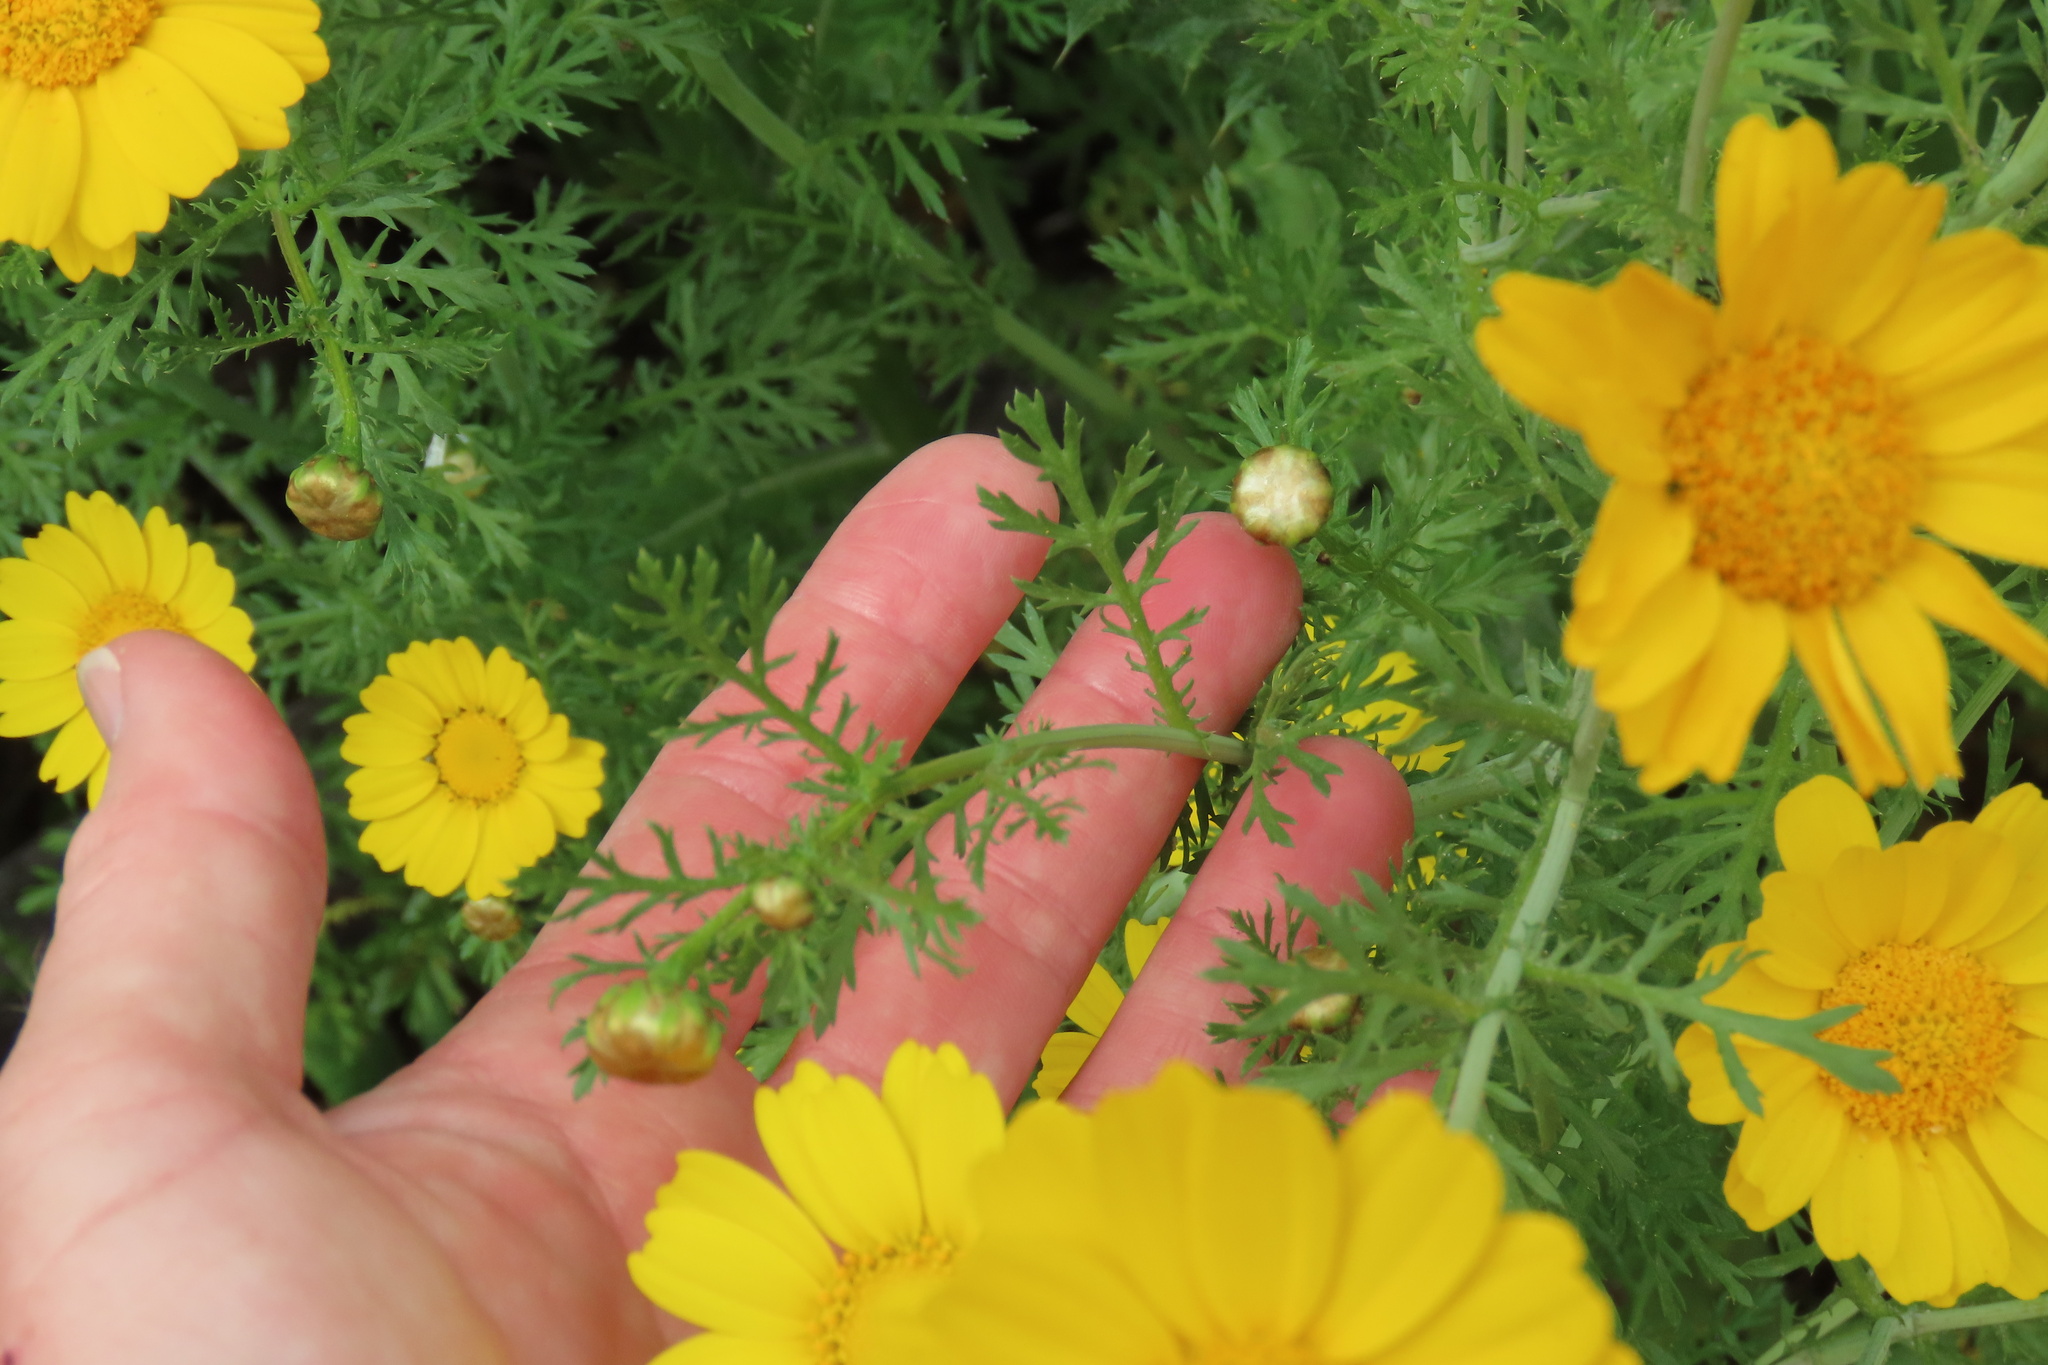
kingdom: Plantae
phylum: Tracheophyta
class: Magnoliopsida
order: Asterales
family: Asteraceae
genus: Glebionis
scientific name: Glebionis coronaria
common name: Crowndaisy
